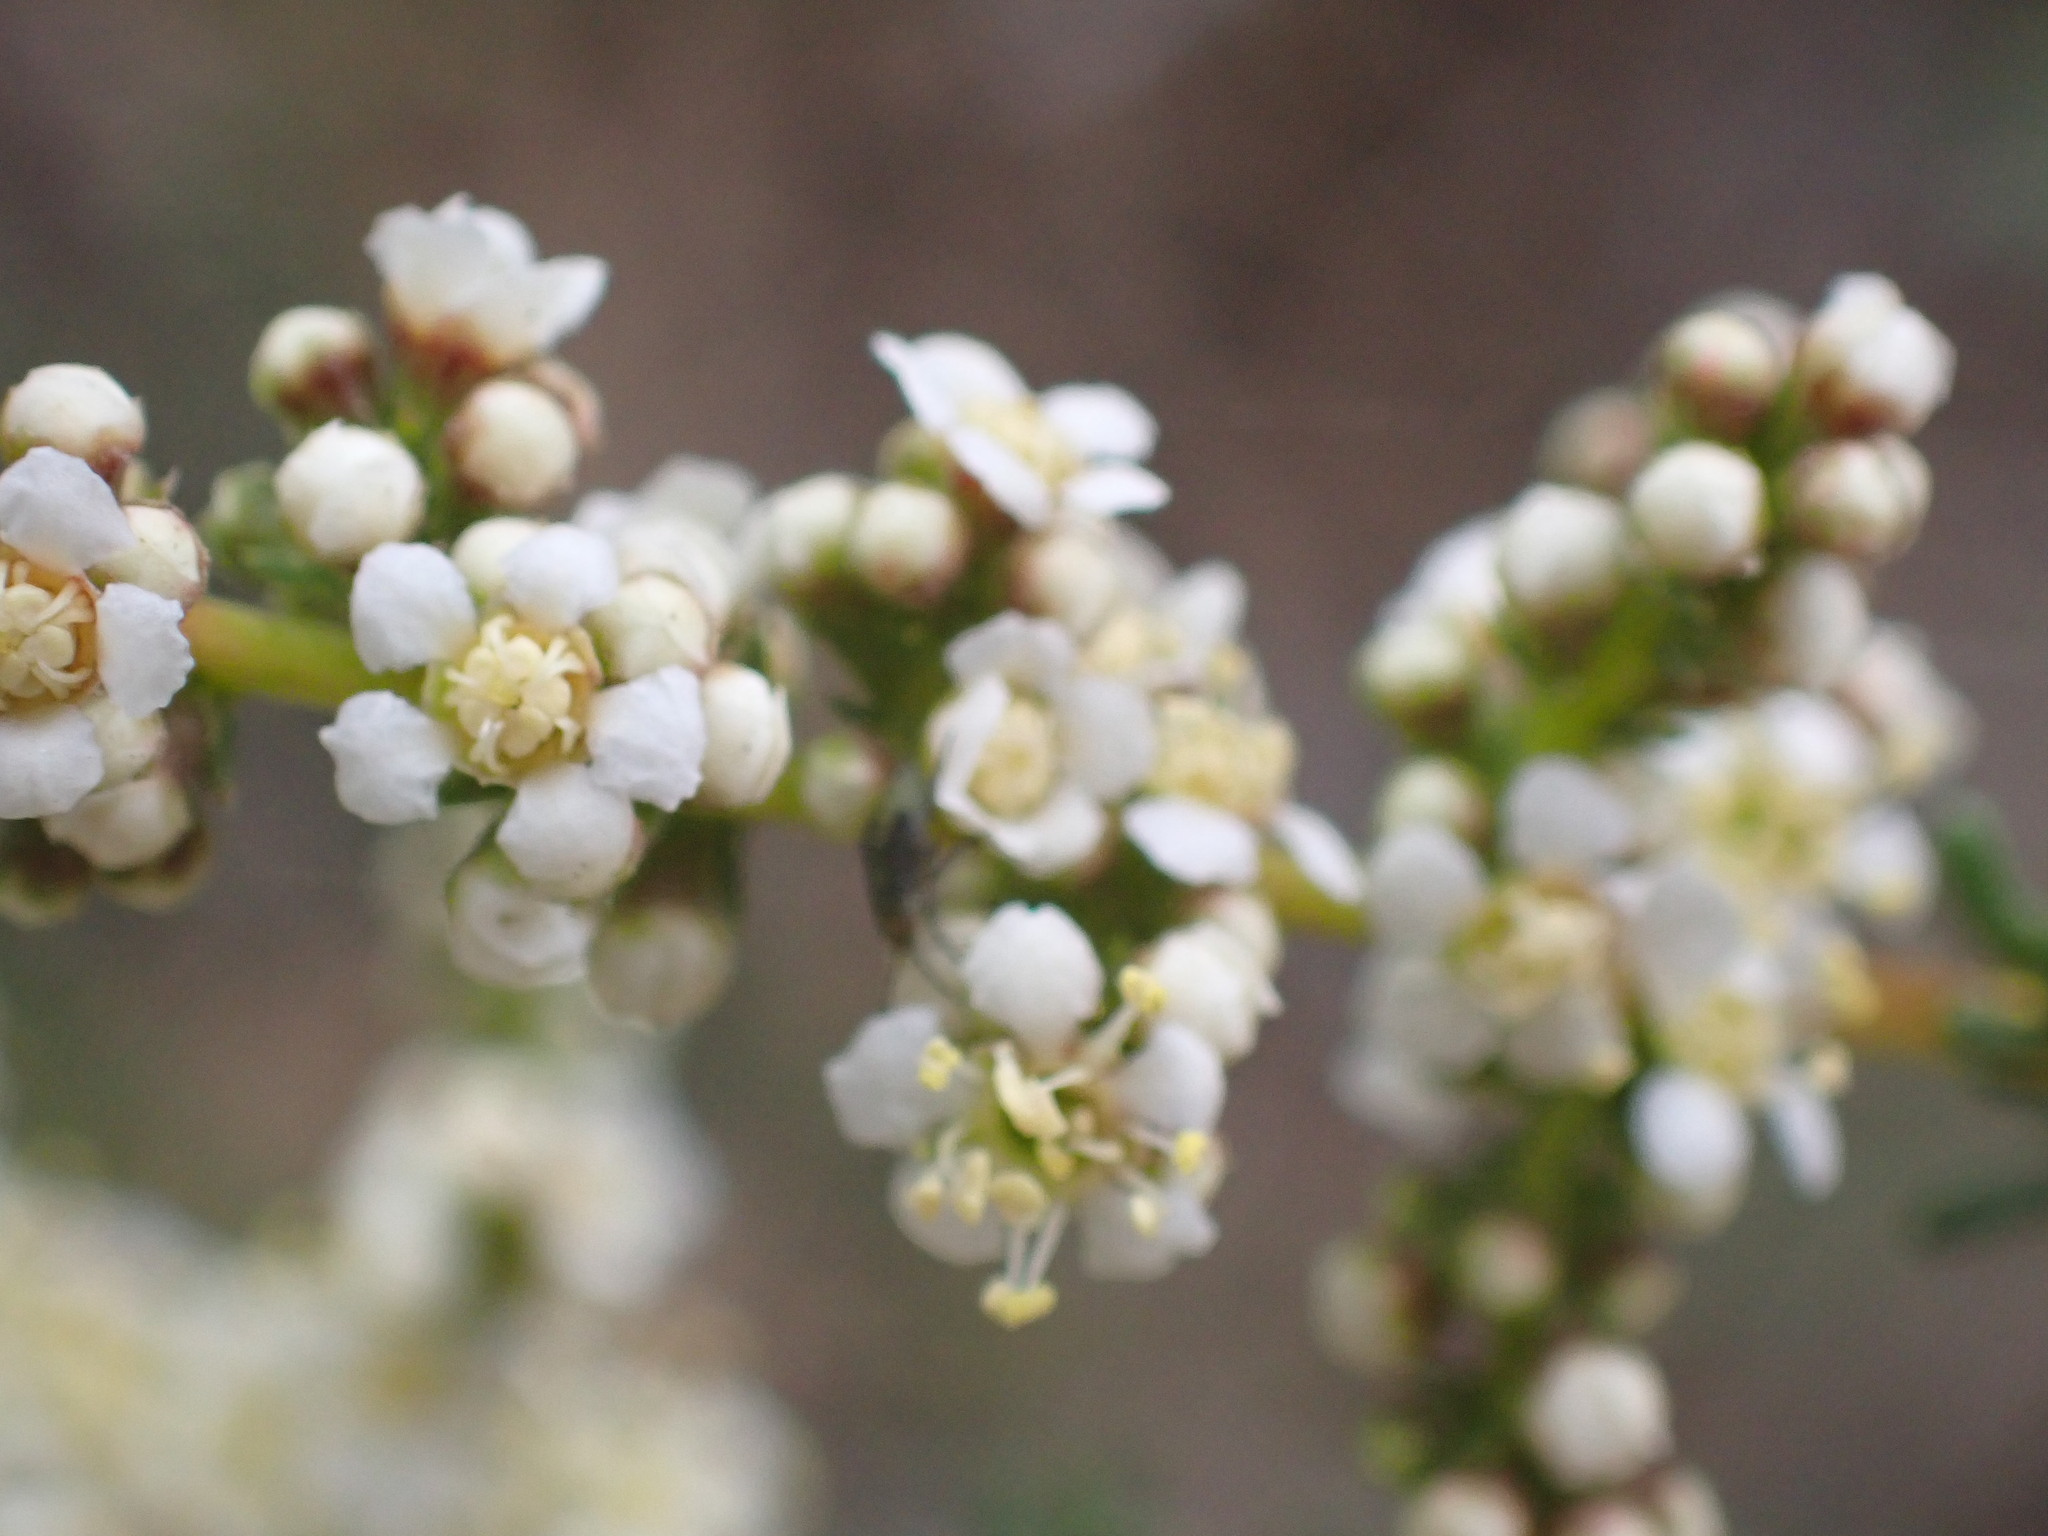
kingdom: Plantae
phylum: Tracheophyta
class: Magnoliopsida
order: Rosales
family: Rosaceae
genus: Adenostoma
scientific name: Adenostoma fasciculatum
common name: Chamise
